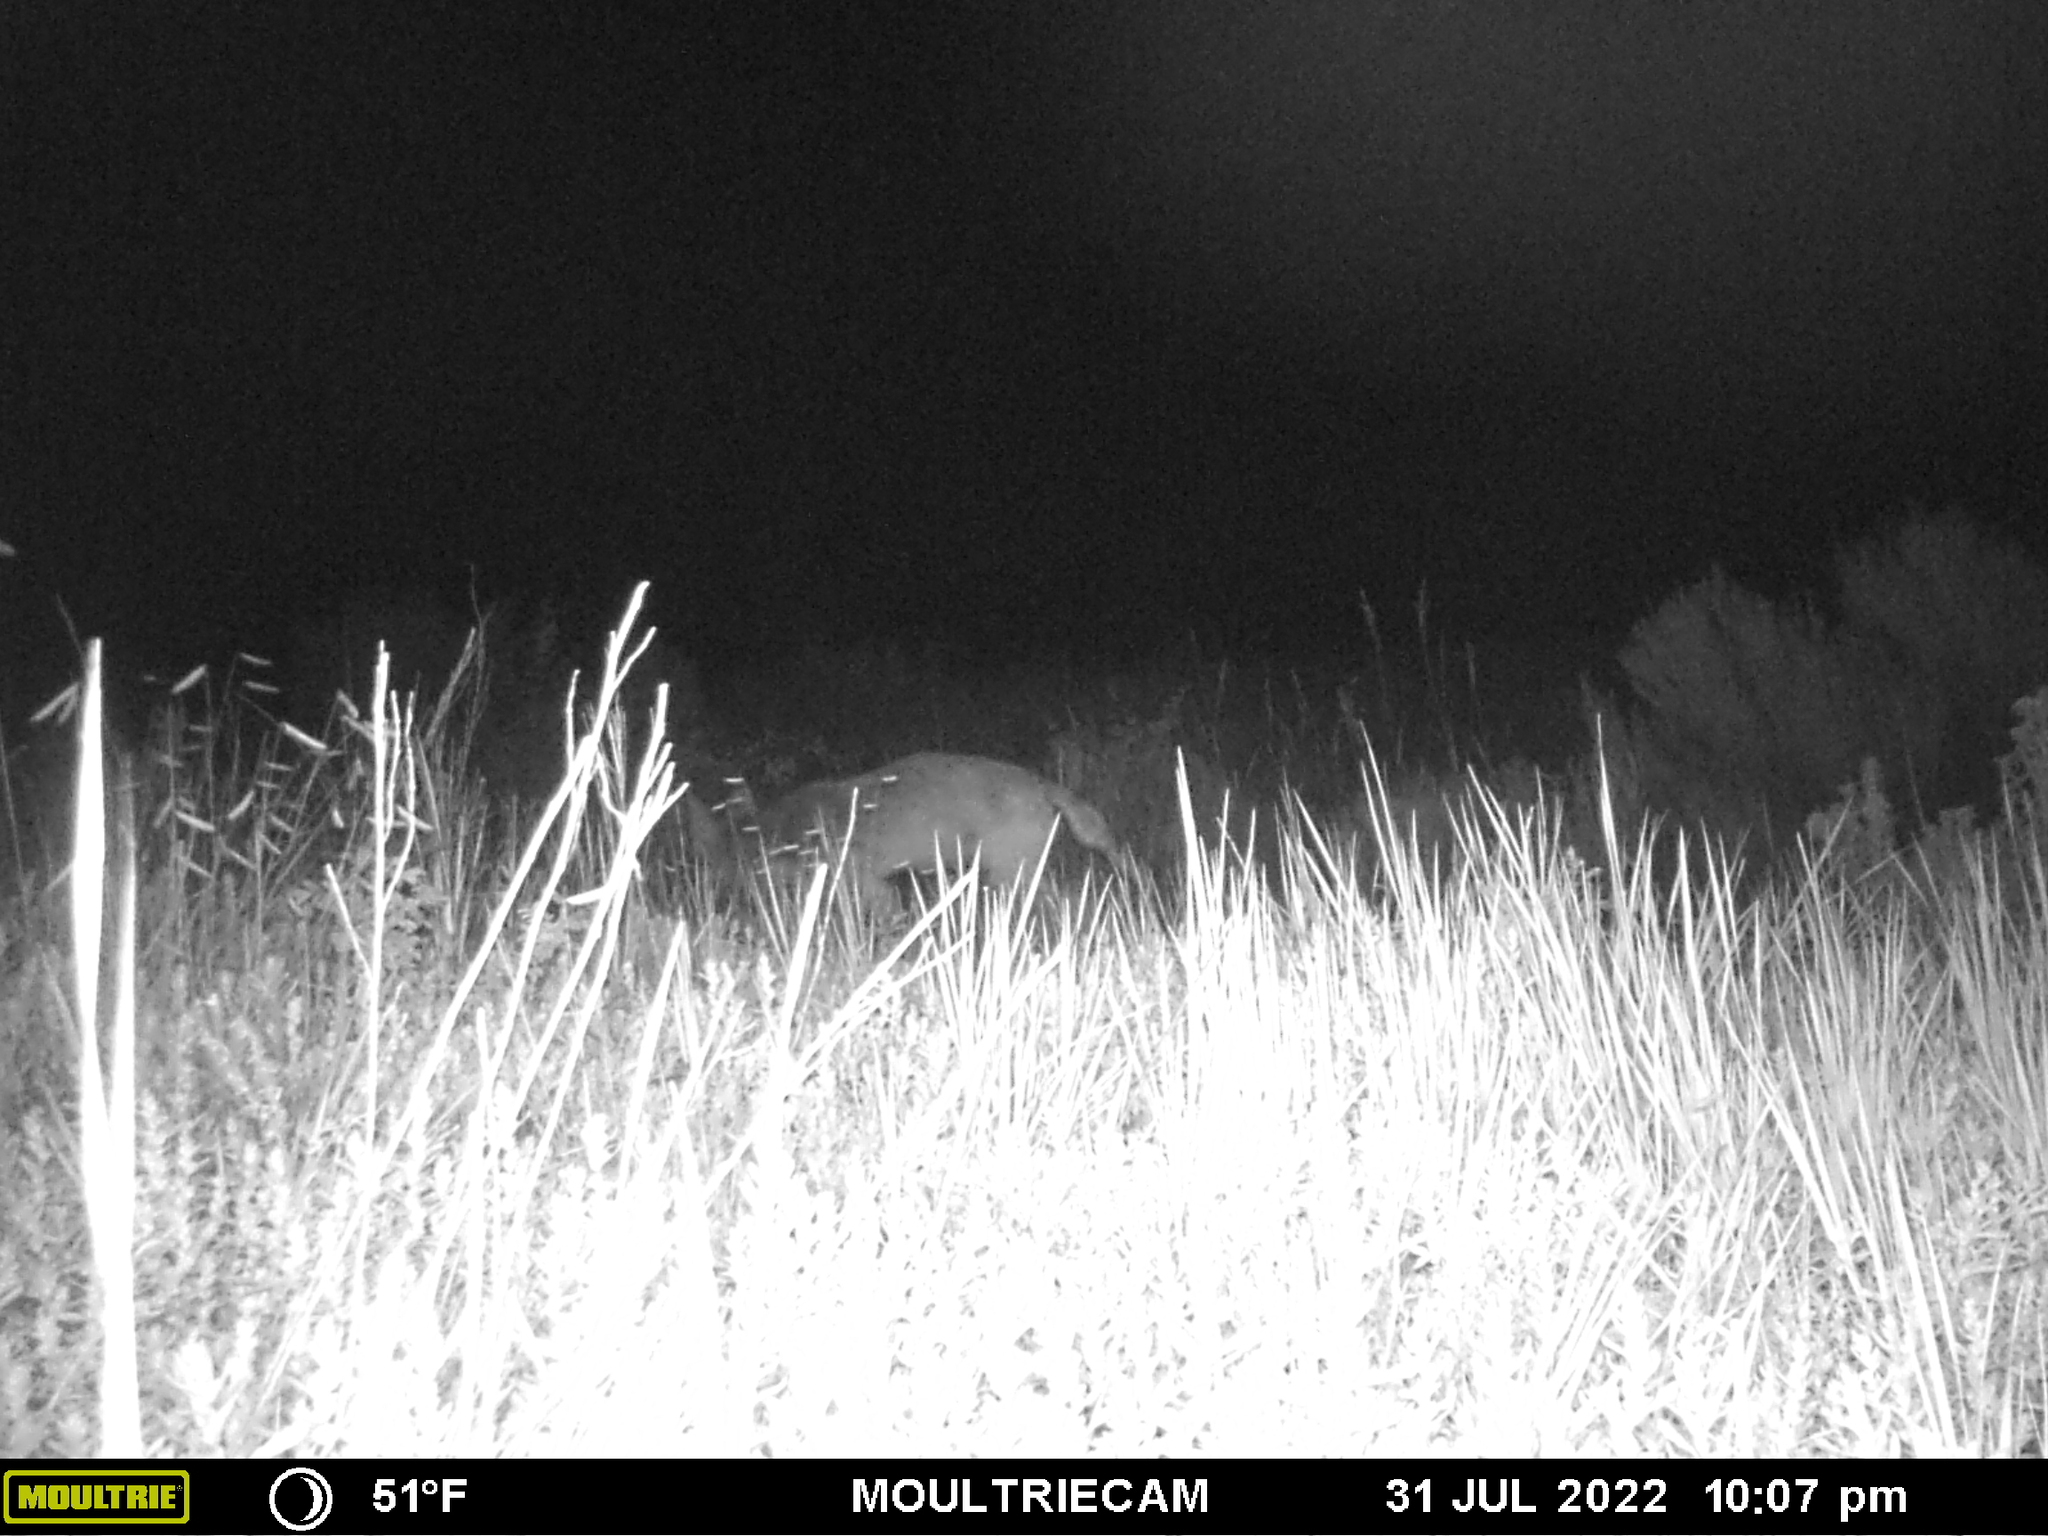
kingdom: Animalia
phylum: Chordata
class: Mammalia
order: Carnivora
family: Canidae
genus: Canis
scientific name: Canis latrans
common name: Coyote
